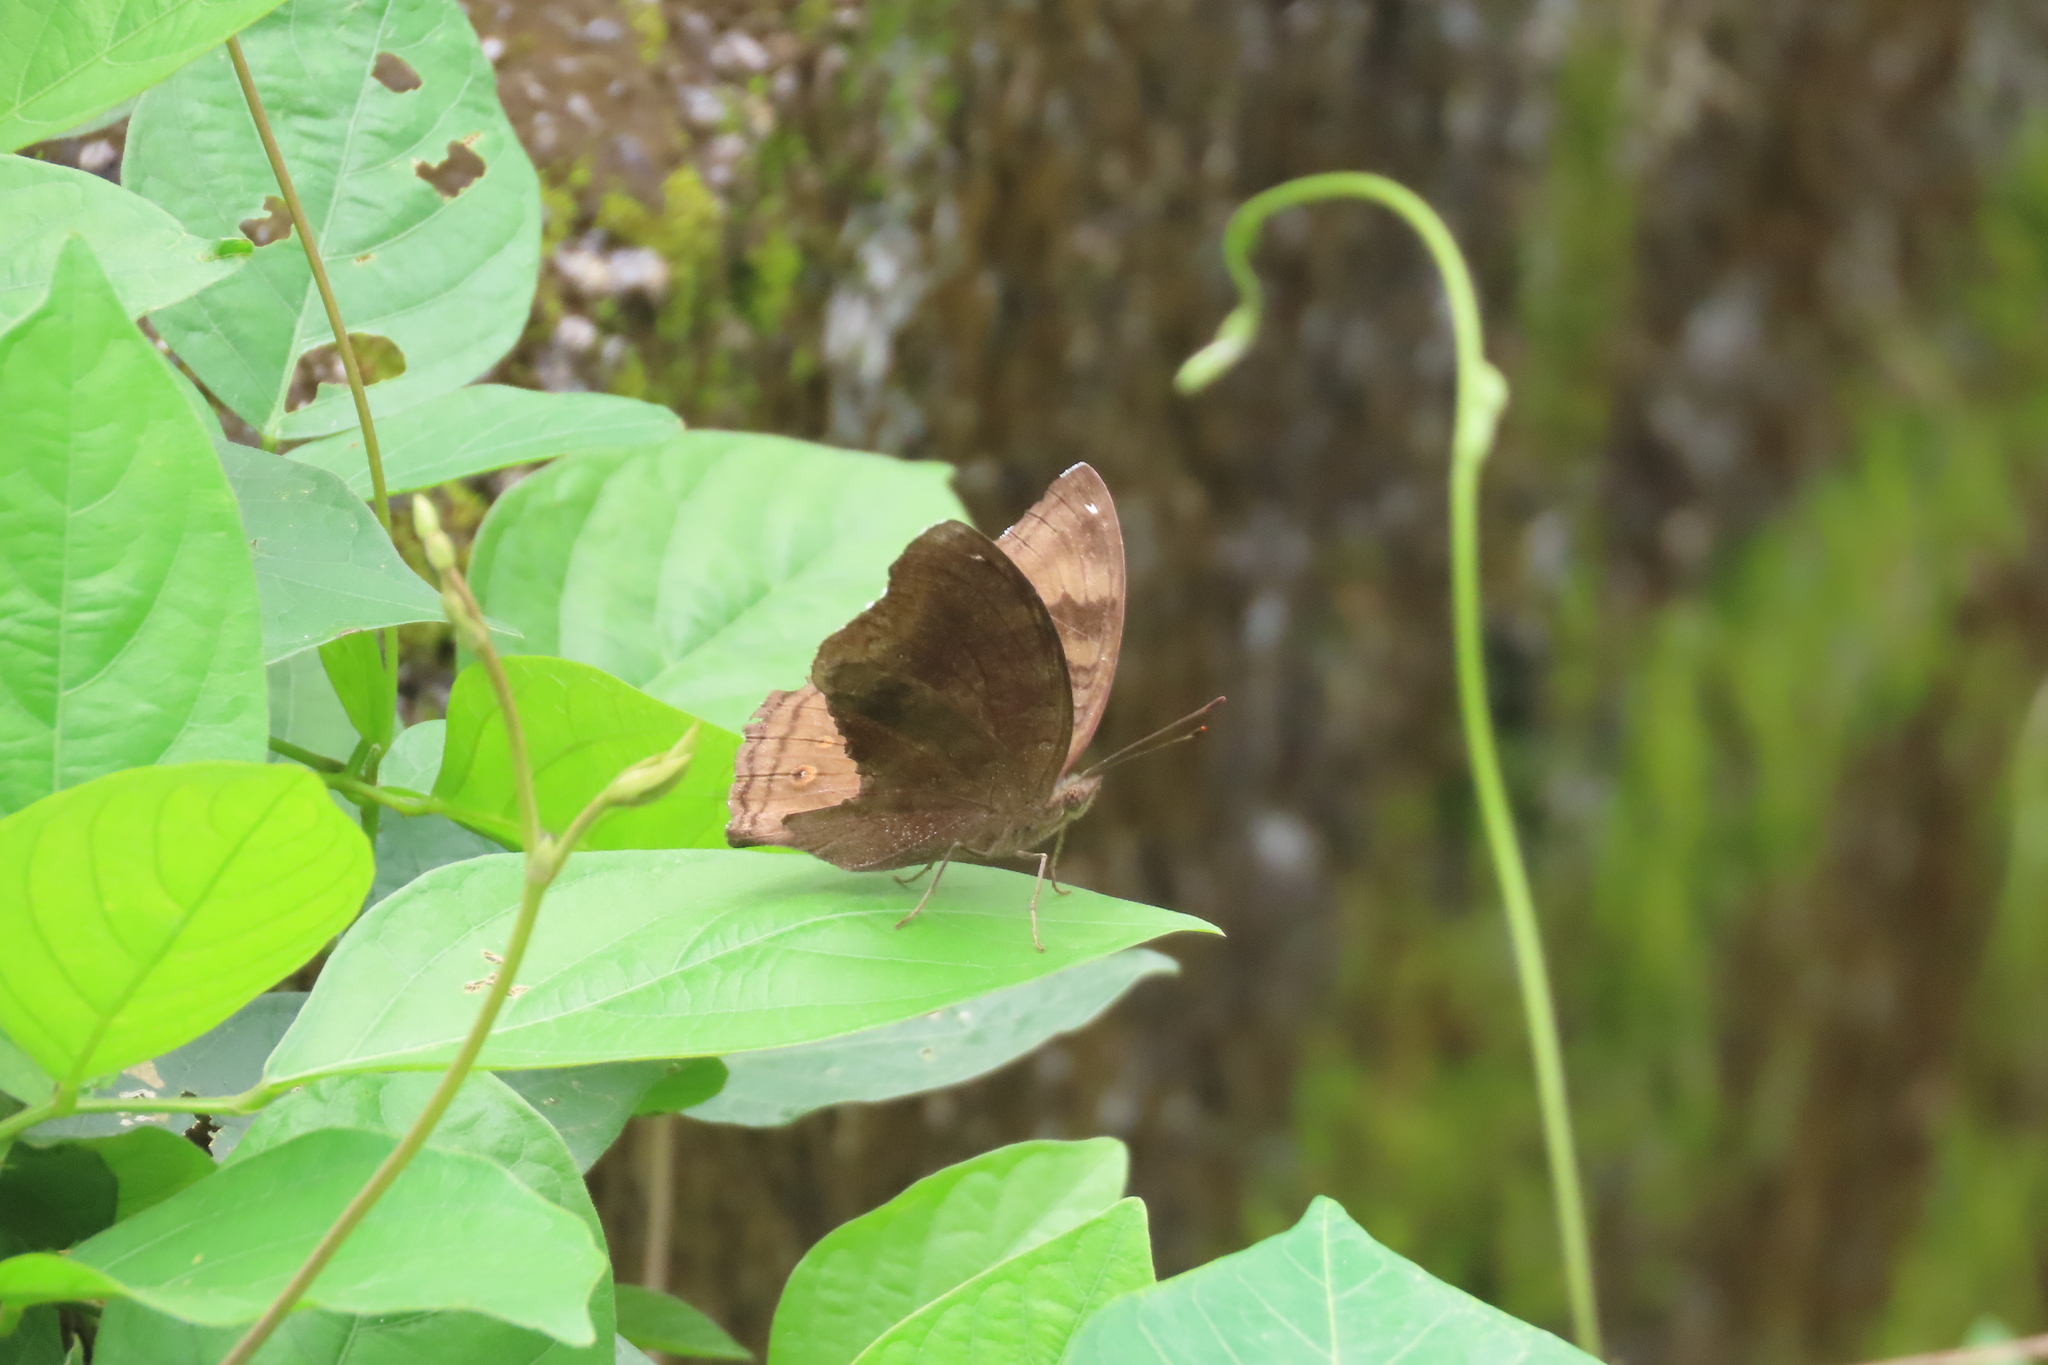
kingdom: Animalia
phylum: Arthropoda
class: Insecta
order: Lepidoptera
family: Nymphalidae
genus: Junonia
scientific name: Junonia iphita
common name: Chocolate pansy
